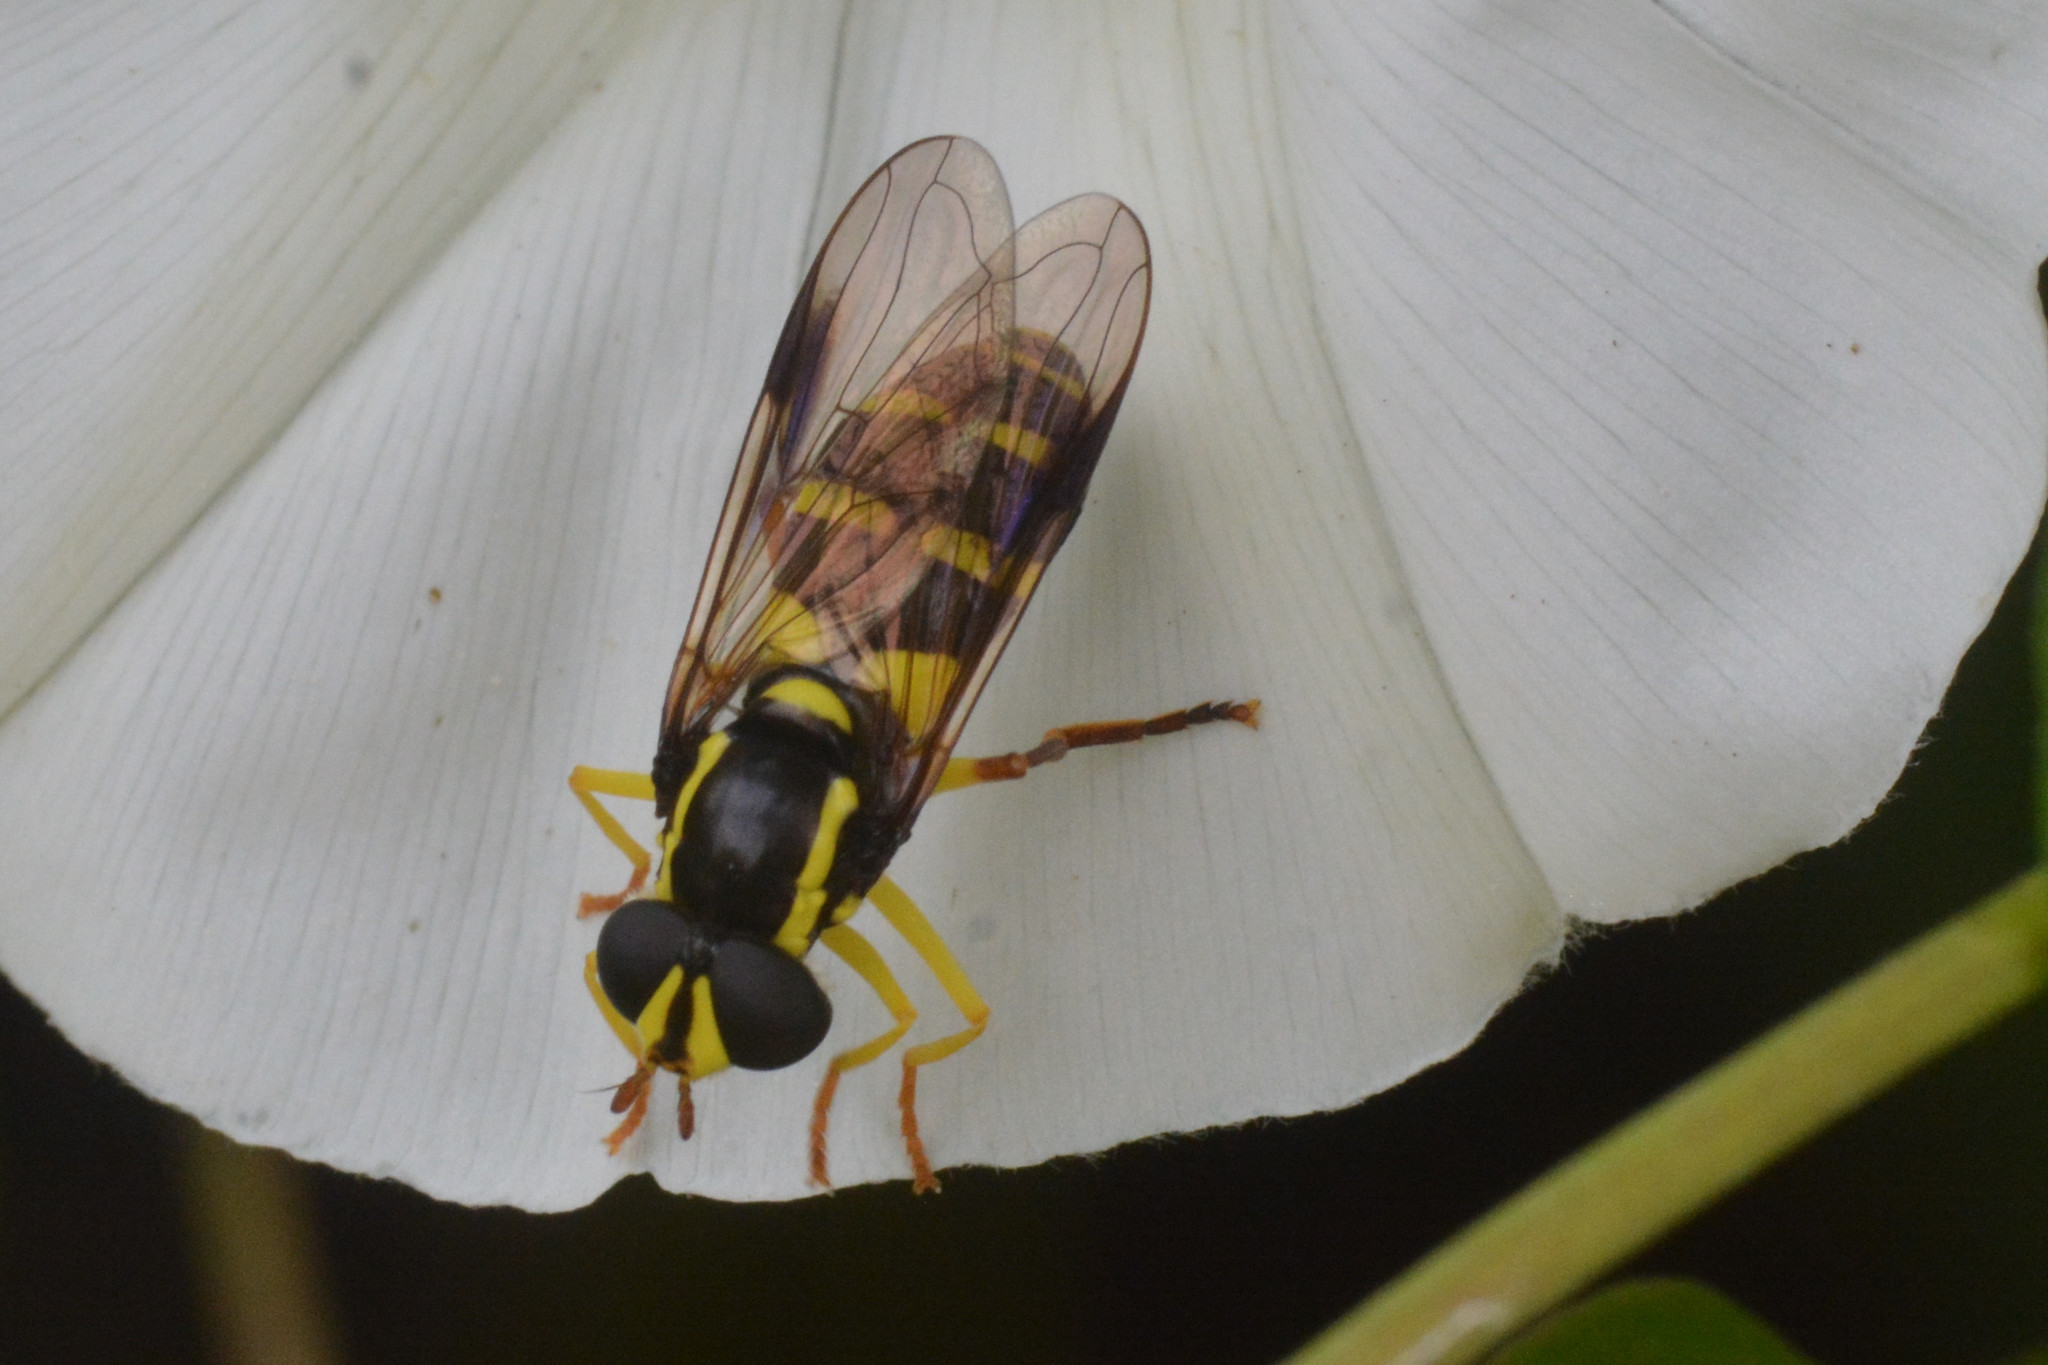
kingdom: Animalia
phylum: Arthropoda
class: Insecta
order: Diptera
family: Syrphidae
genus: Philhelius
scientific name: Philhelius pedissequum
